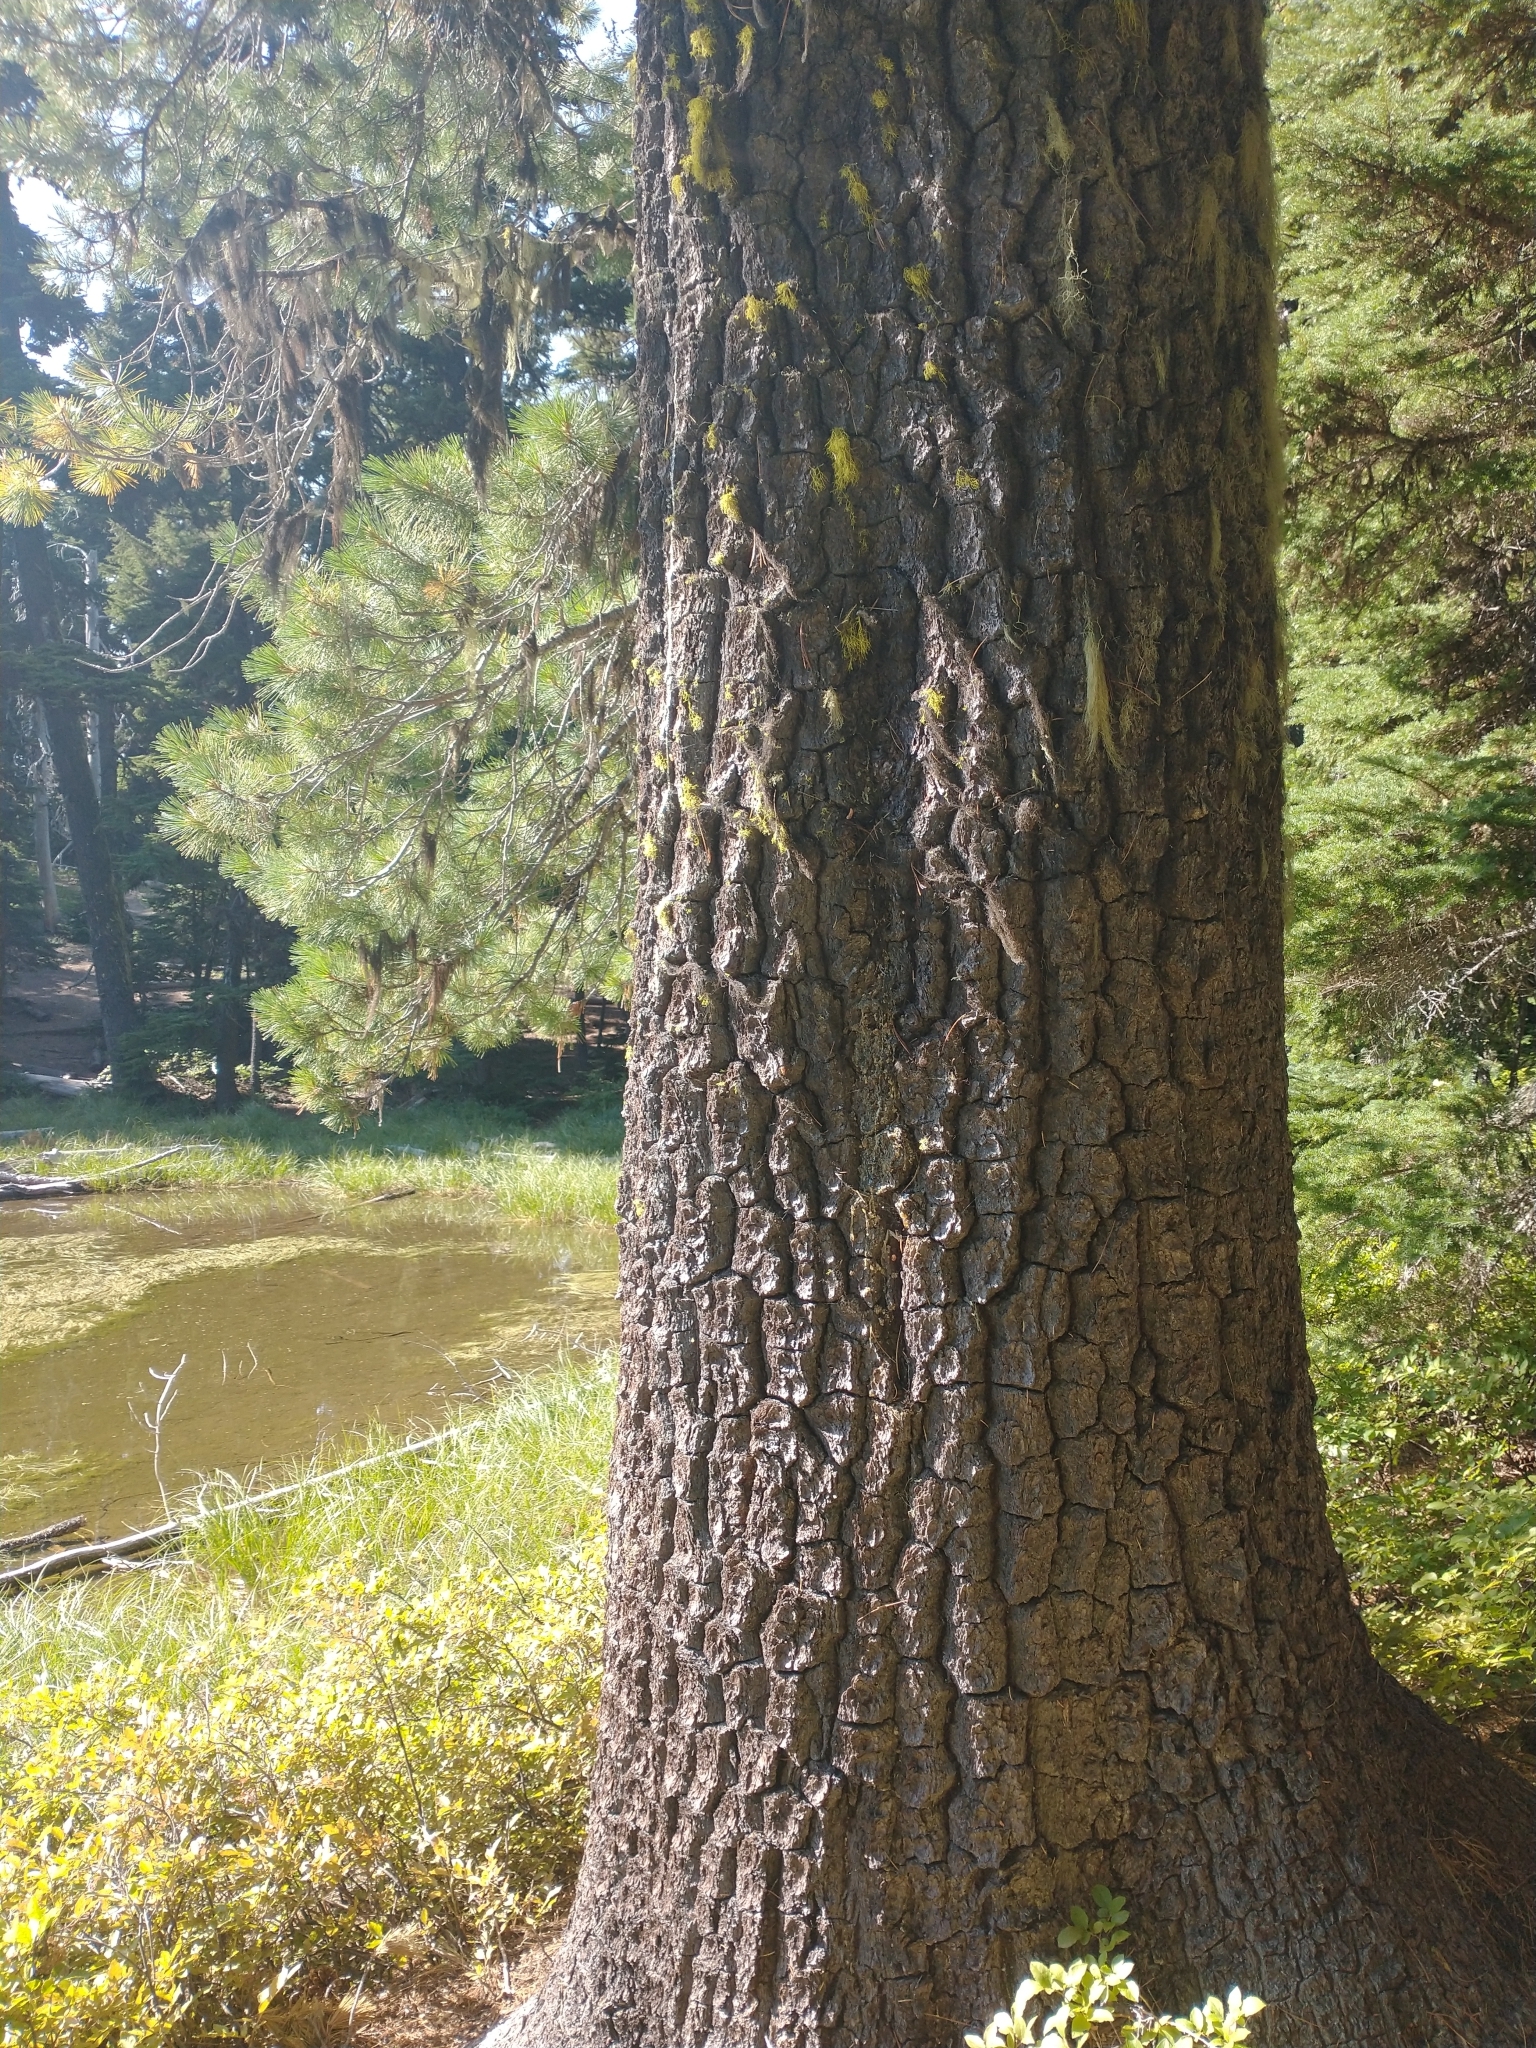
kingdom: Plantae
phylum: Tracheophyta
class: Pinopsida
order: Pinales
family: Pinaceae
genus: Pinus
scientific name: Pinus monticola
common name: Western white pine
